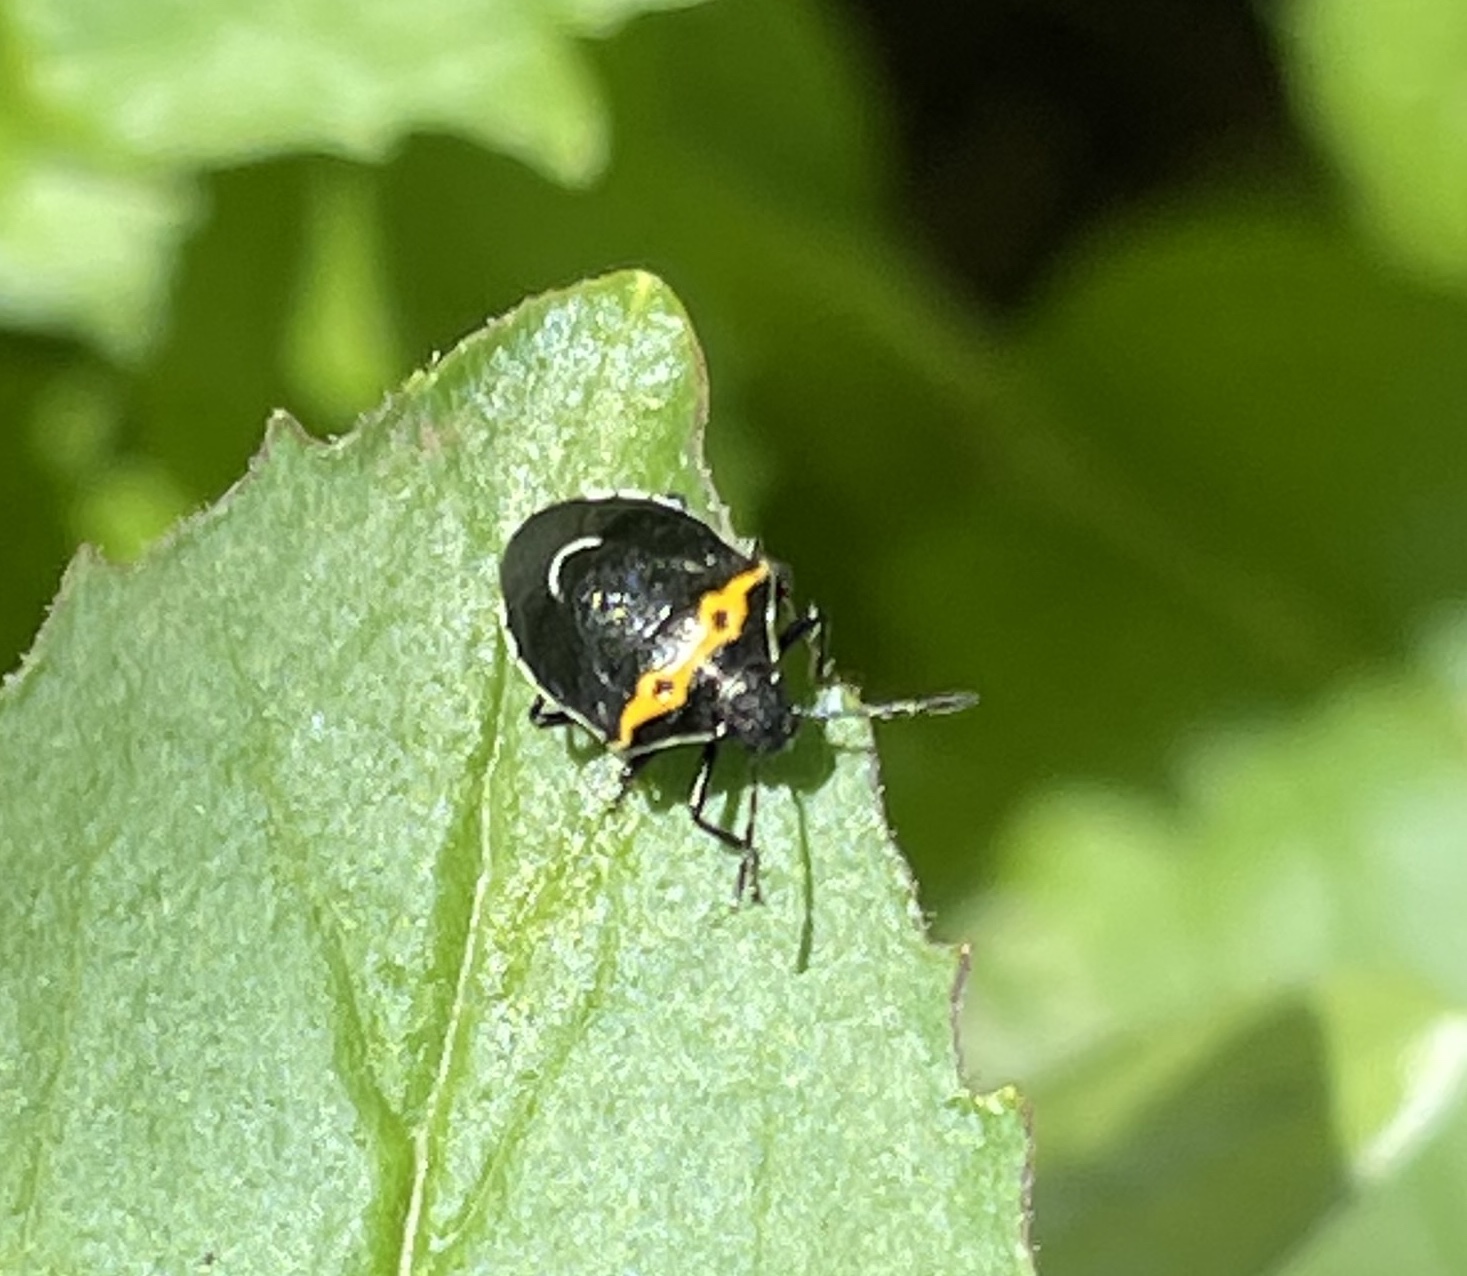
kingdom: Animalia
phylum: Arthropoda
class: Insecta
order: Hemiptera
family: Pentatomidae
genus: Cosmopepla
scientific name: Cosmopepla conspicillaris
